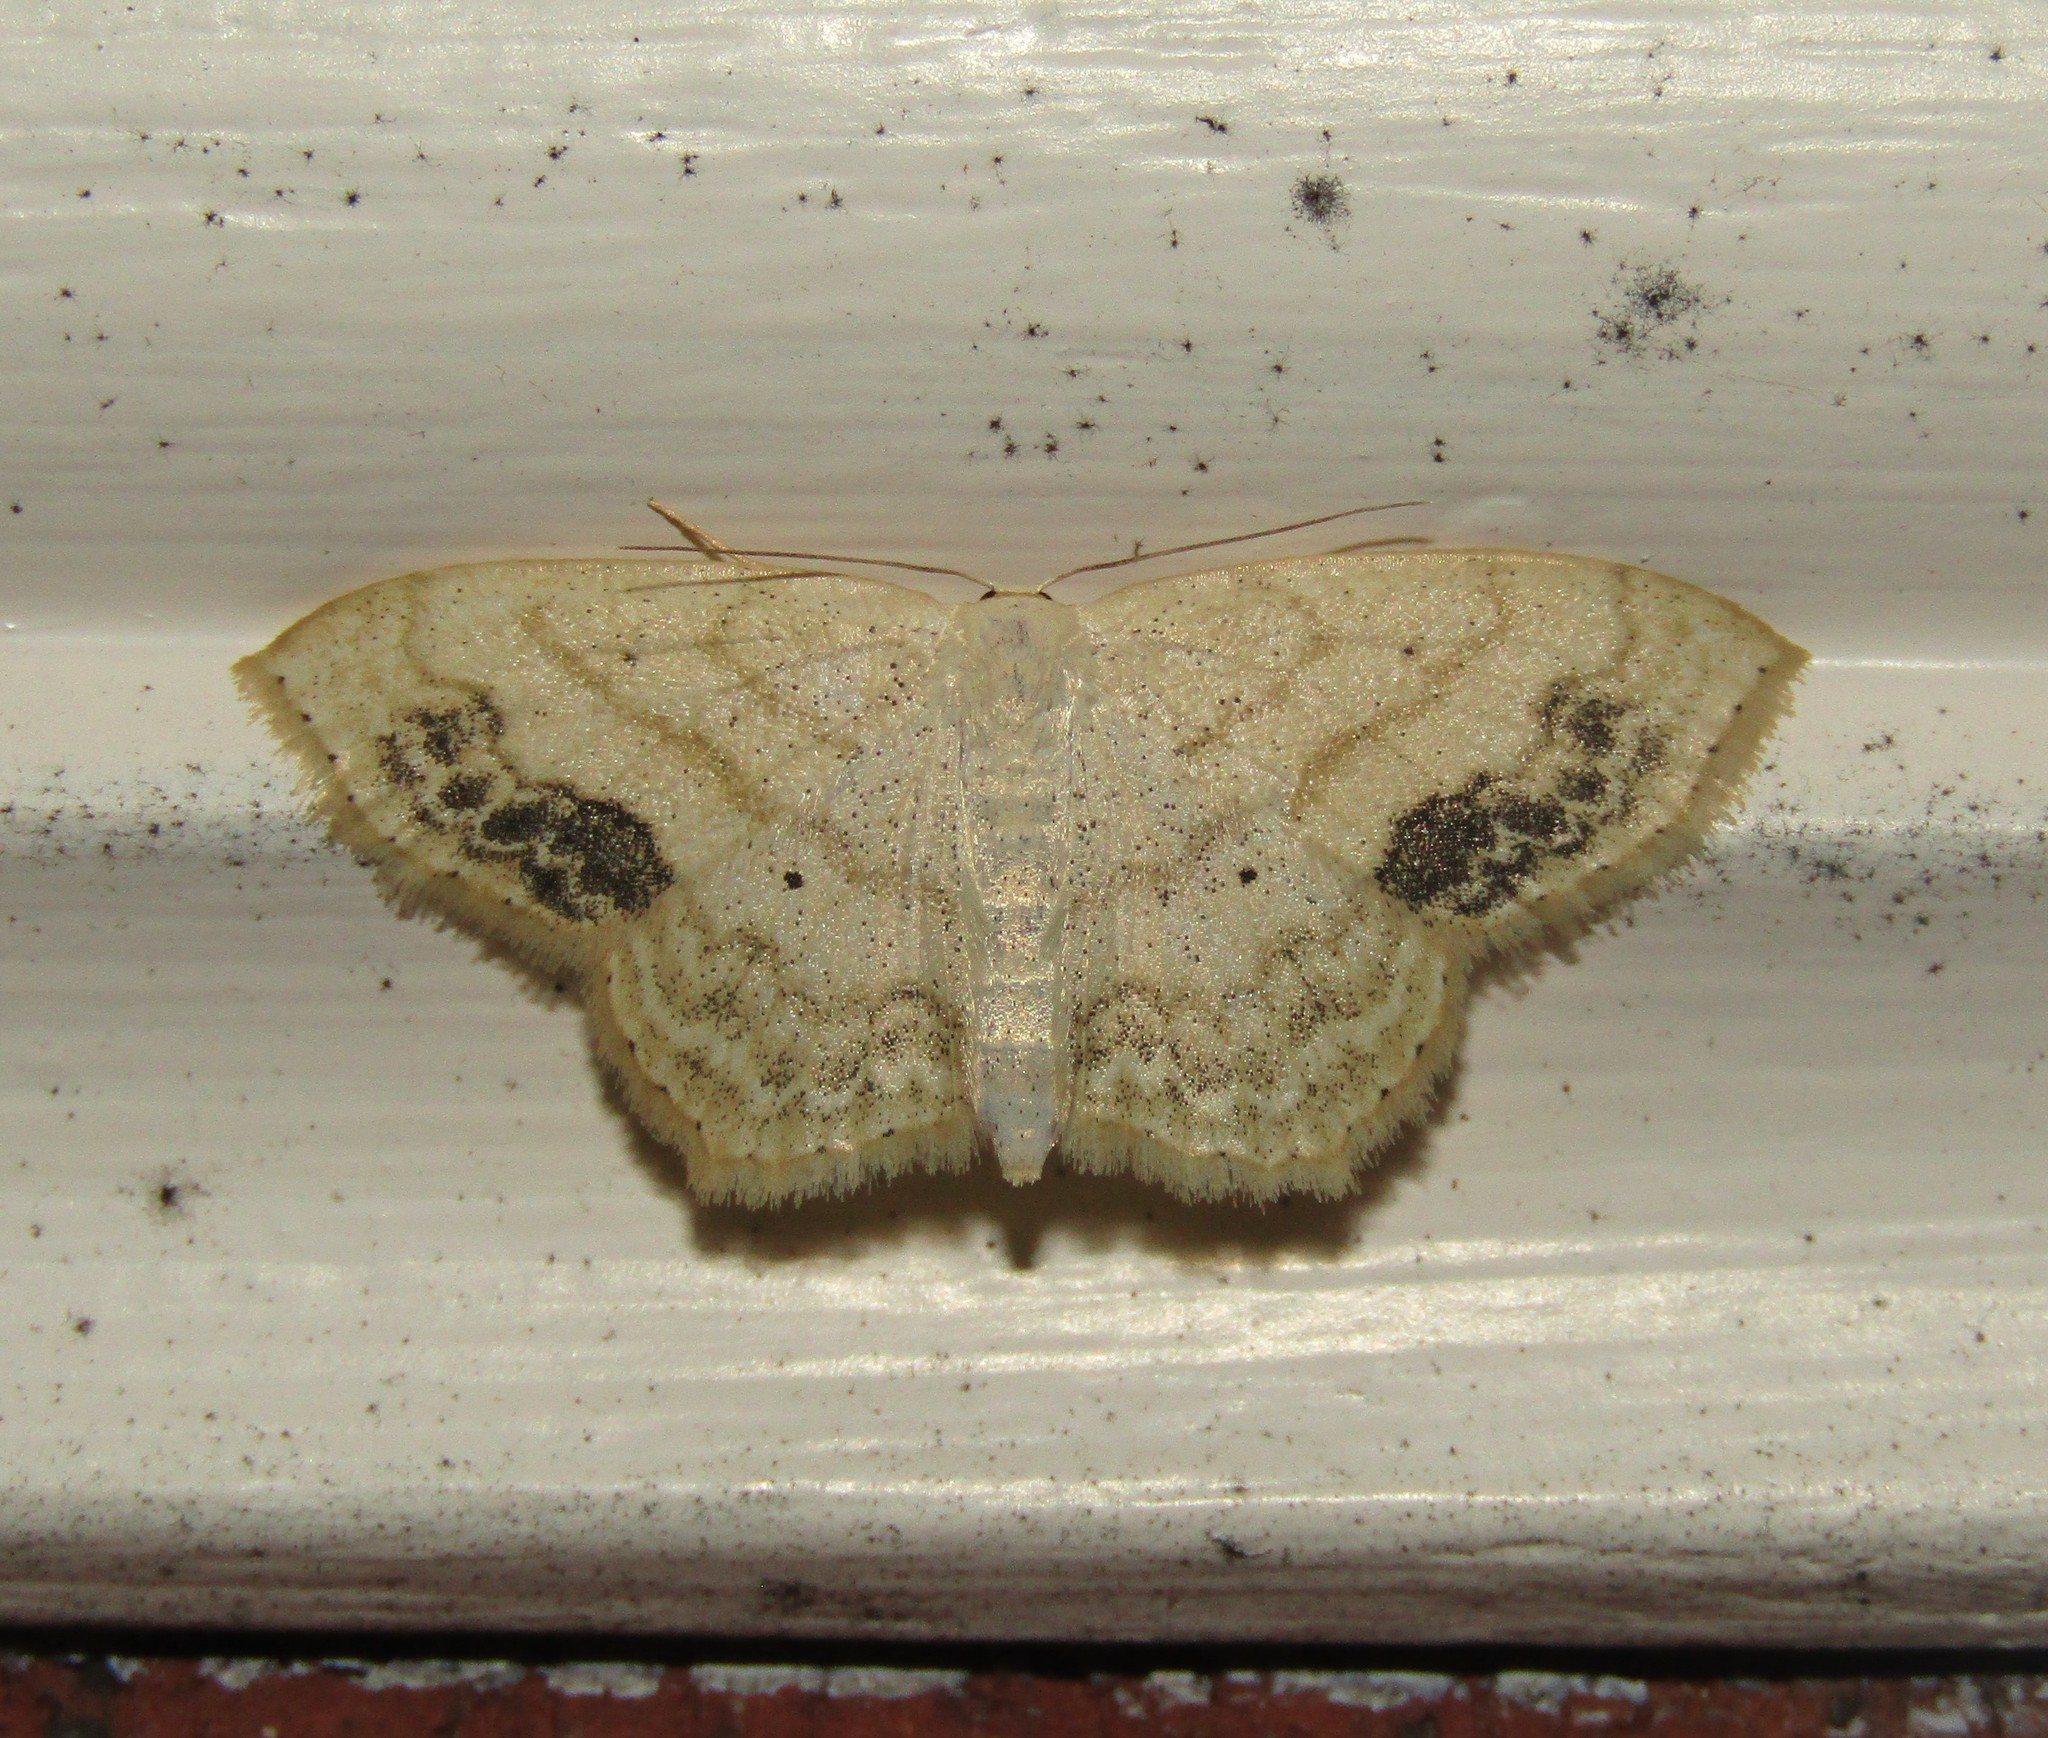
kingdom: Animalia
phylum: Arthropoda
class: Insecta
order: Lepidoptera
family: Geometridae
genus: Scopula
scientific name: Scopula limboundata
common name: Large lace border
